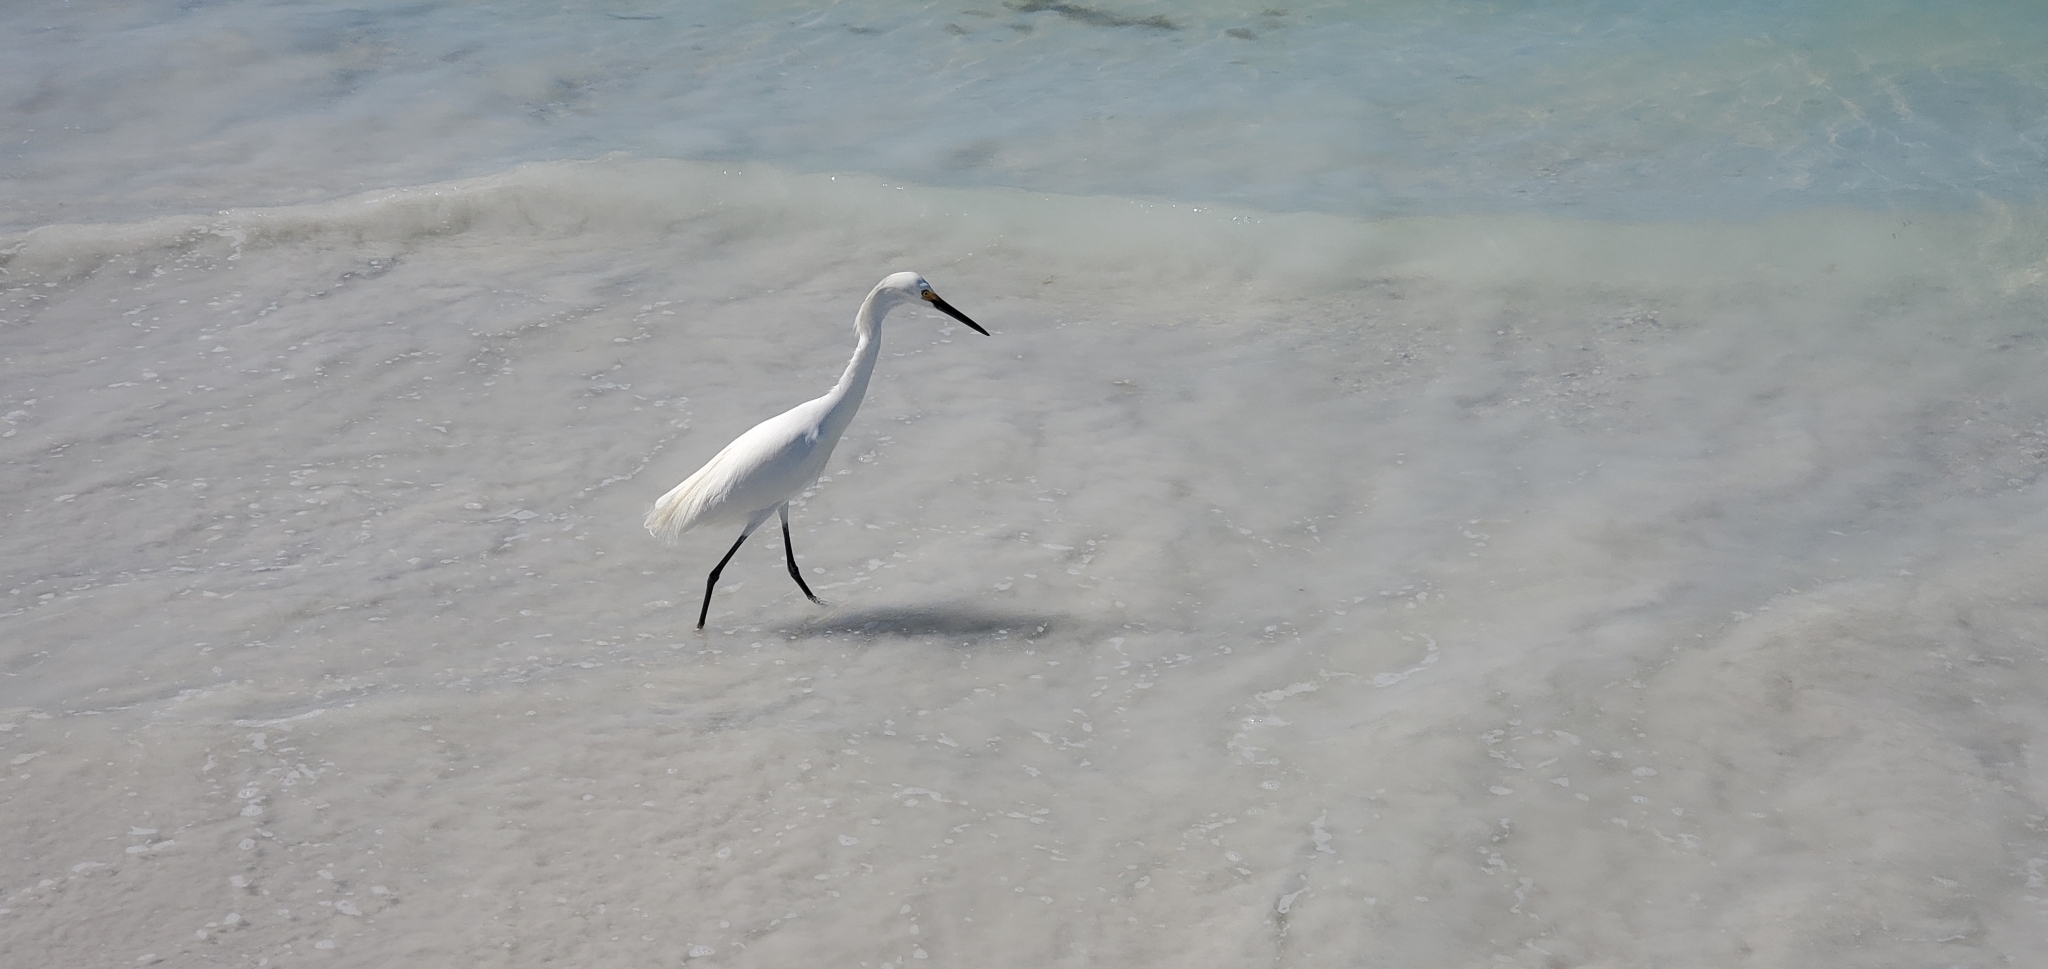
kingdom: Animalia
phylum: Chordata
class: Aves
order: Pelecaniformes
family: Ardeidae
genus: Egretta
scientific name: Egretta thula
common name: Snowy egret
